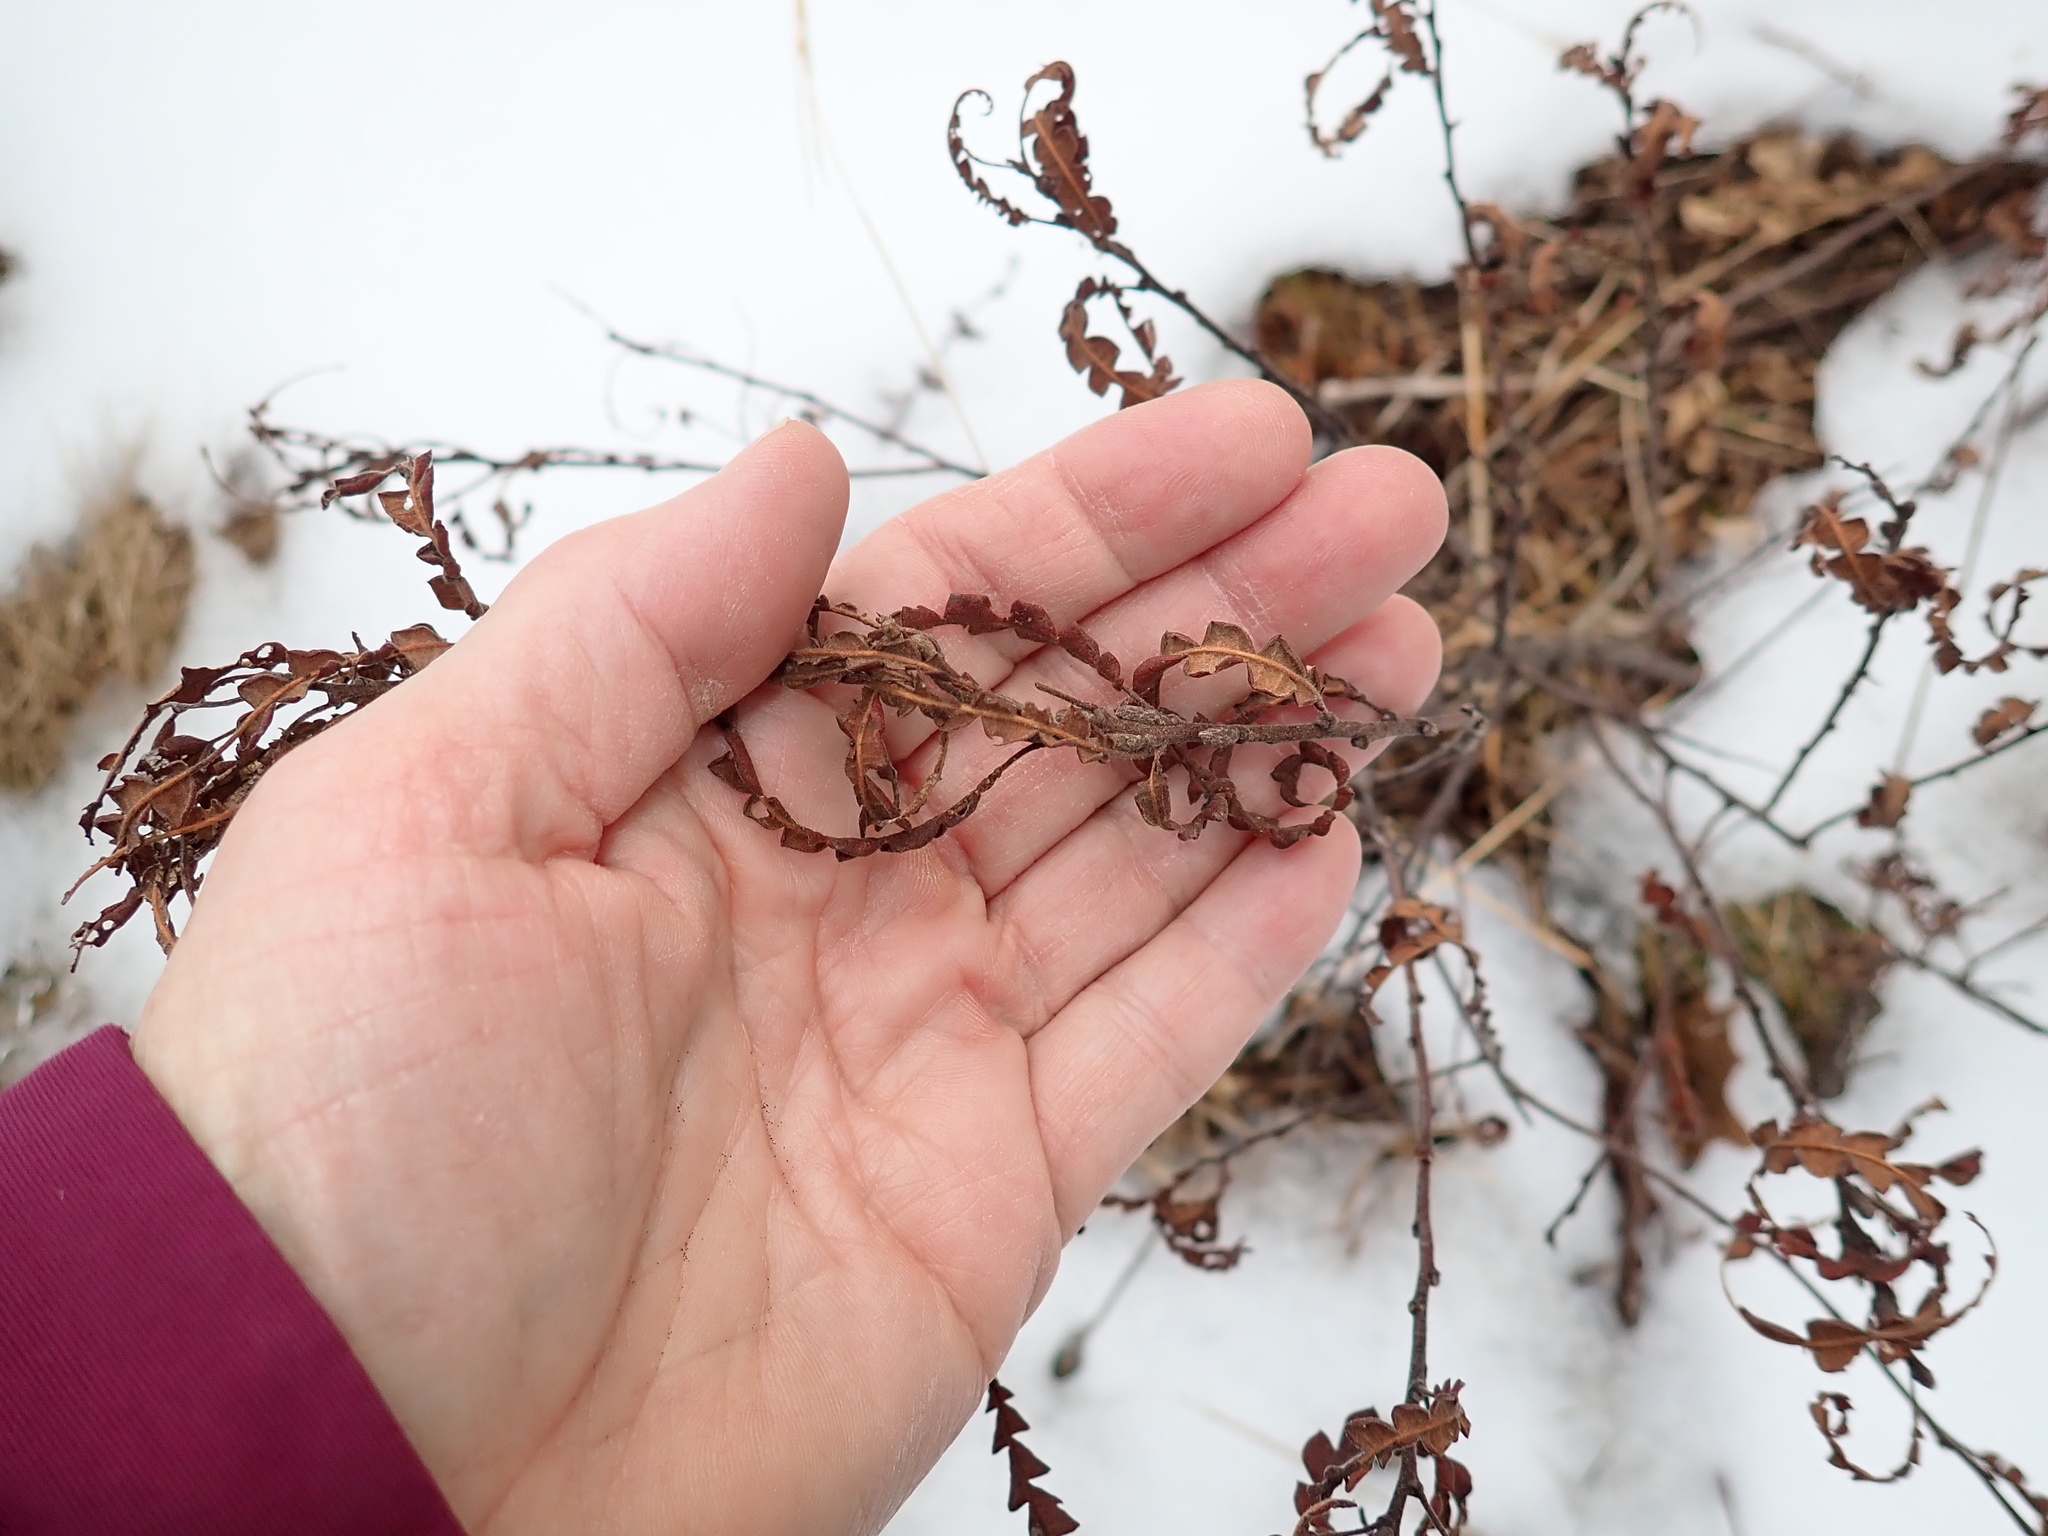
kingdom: Plantae
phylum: Tracheophyta
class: Magnoliopsida
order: Fagales
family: Myricaceae
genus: Comptonia
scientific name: Comptonia peregrina
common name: Sweet-fern
